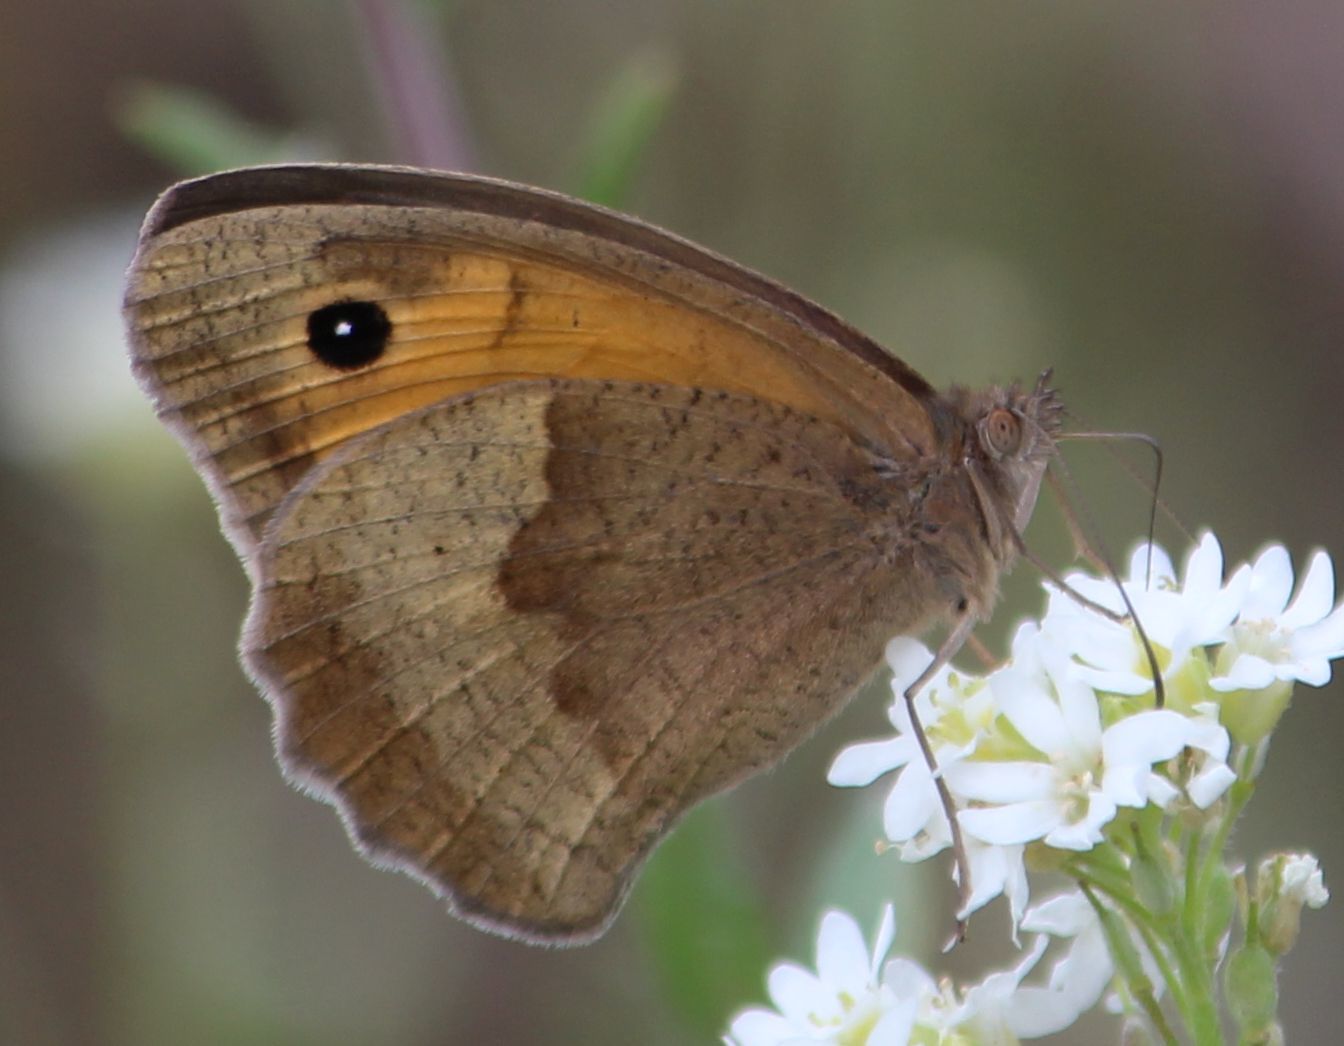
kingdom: Animalia
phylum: Arthropoda
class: Insecta
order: Lepidoptera
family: Nymphalidae
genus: Maniola
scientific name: Maniola jurtina
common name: Meadow brown
